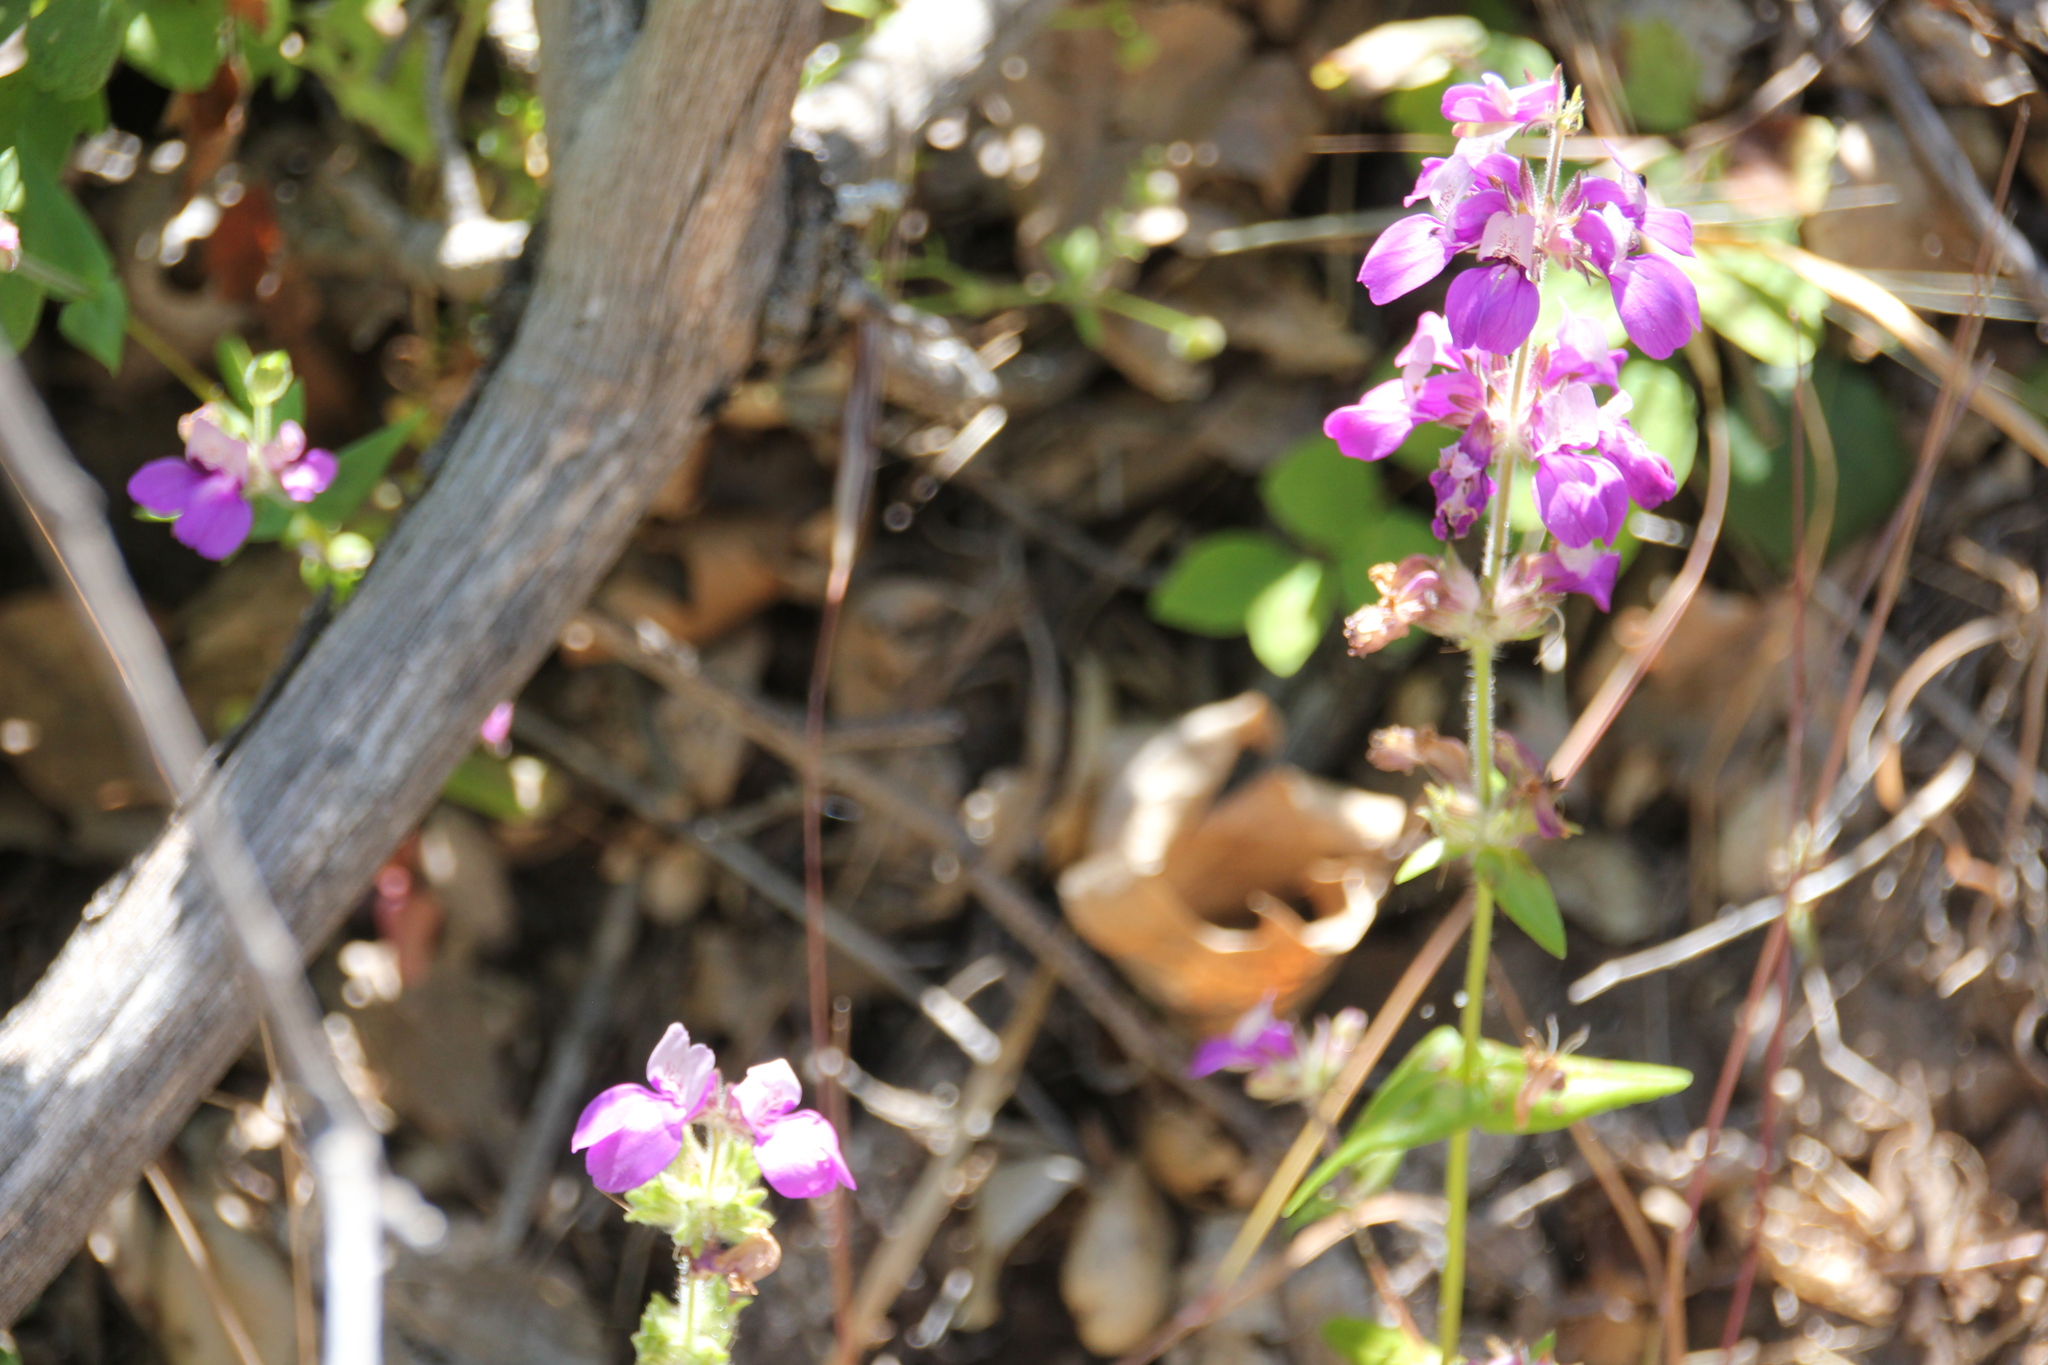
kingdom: Plantae
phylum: Tracheophyta
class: Magnoliopsida
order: Lamiales
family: Plantaginaceae
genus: Collinsia
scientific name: Collinsia heterophylla
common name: Chinese-houses
